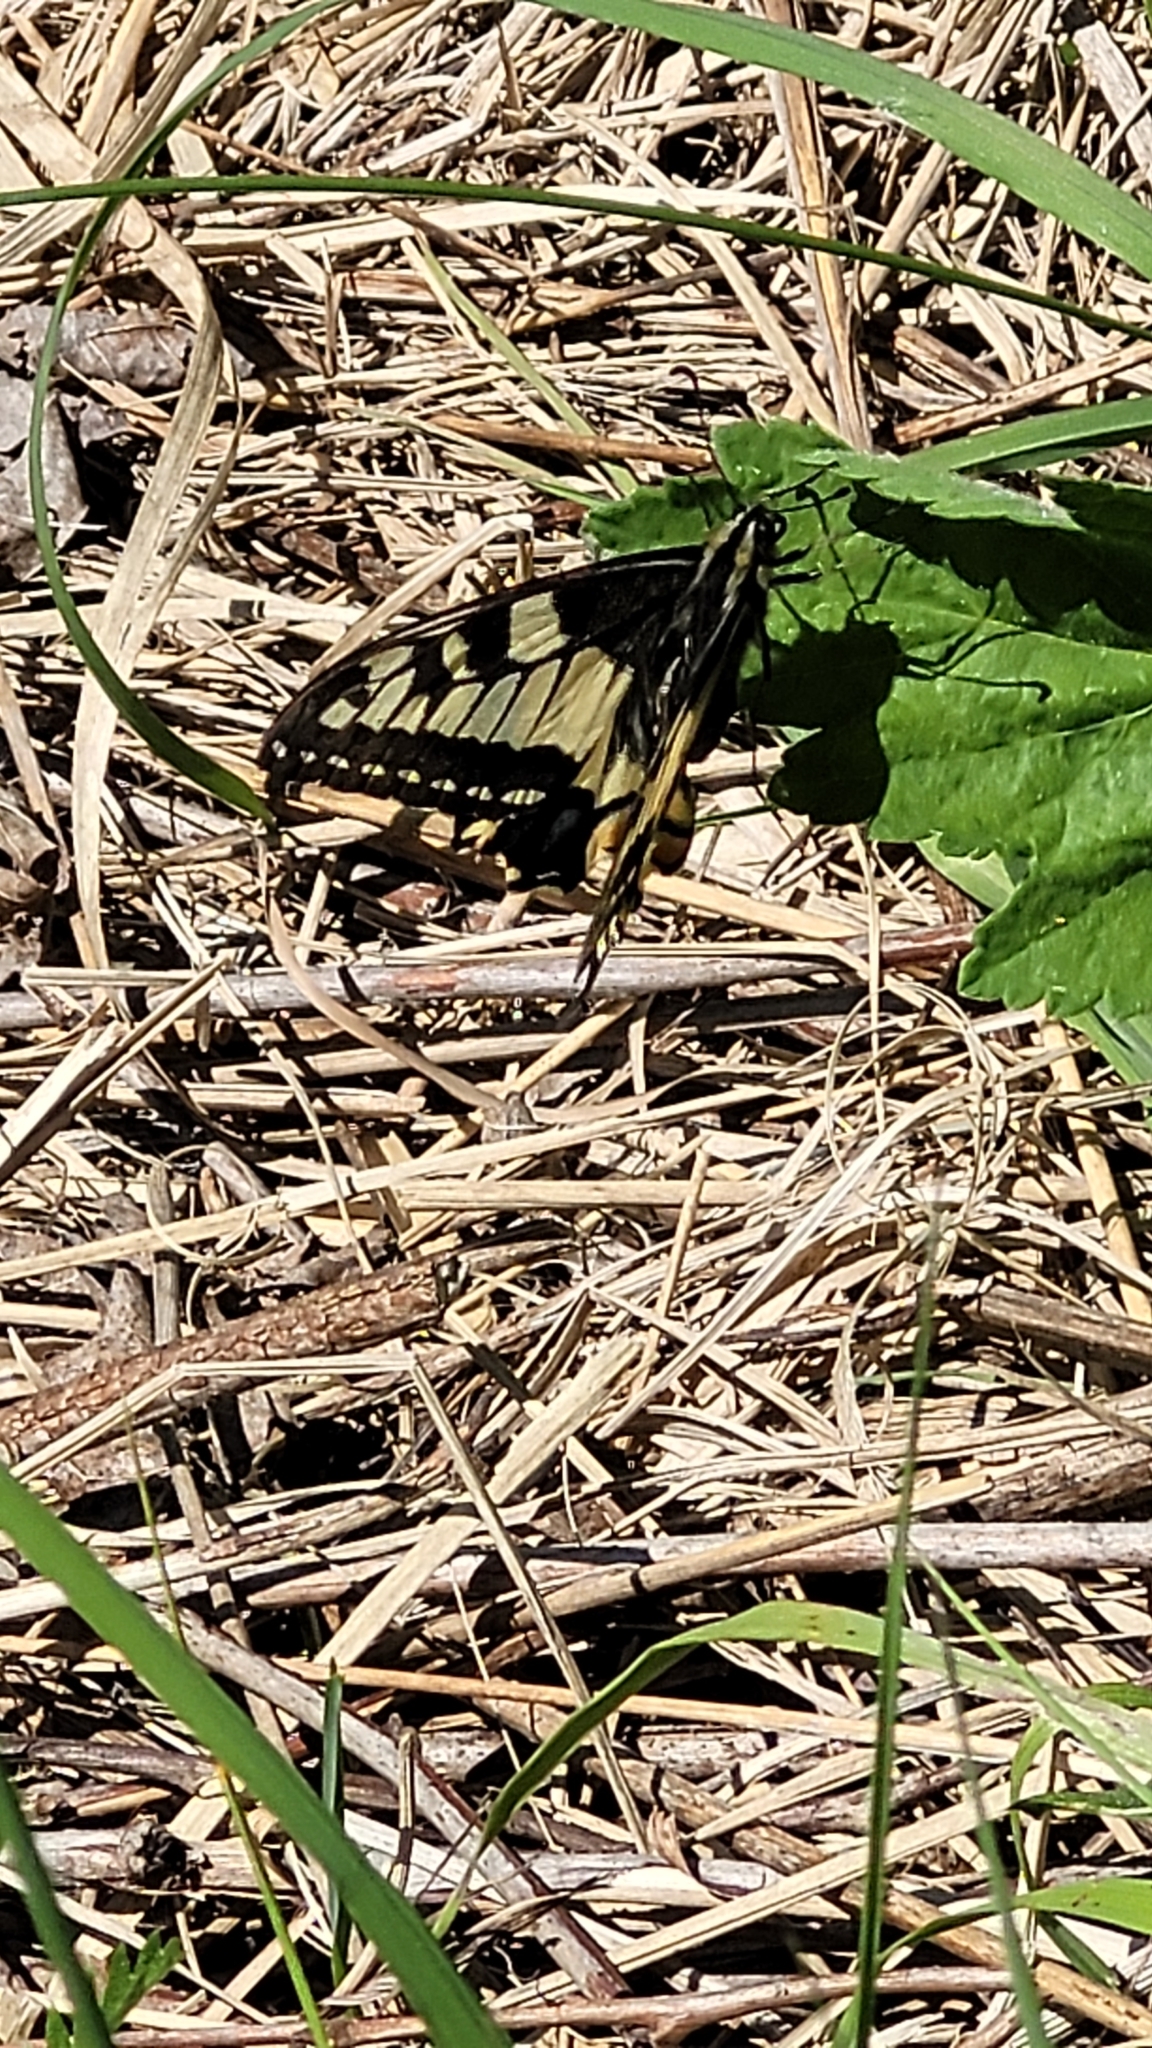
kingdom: Animalia
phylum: Arthropoda
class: Insecta
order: Lepidoptera
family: Papilionidae
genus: Papilio
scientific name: Papilio machaon
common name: Swallowtail
